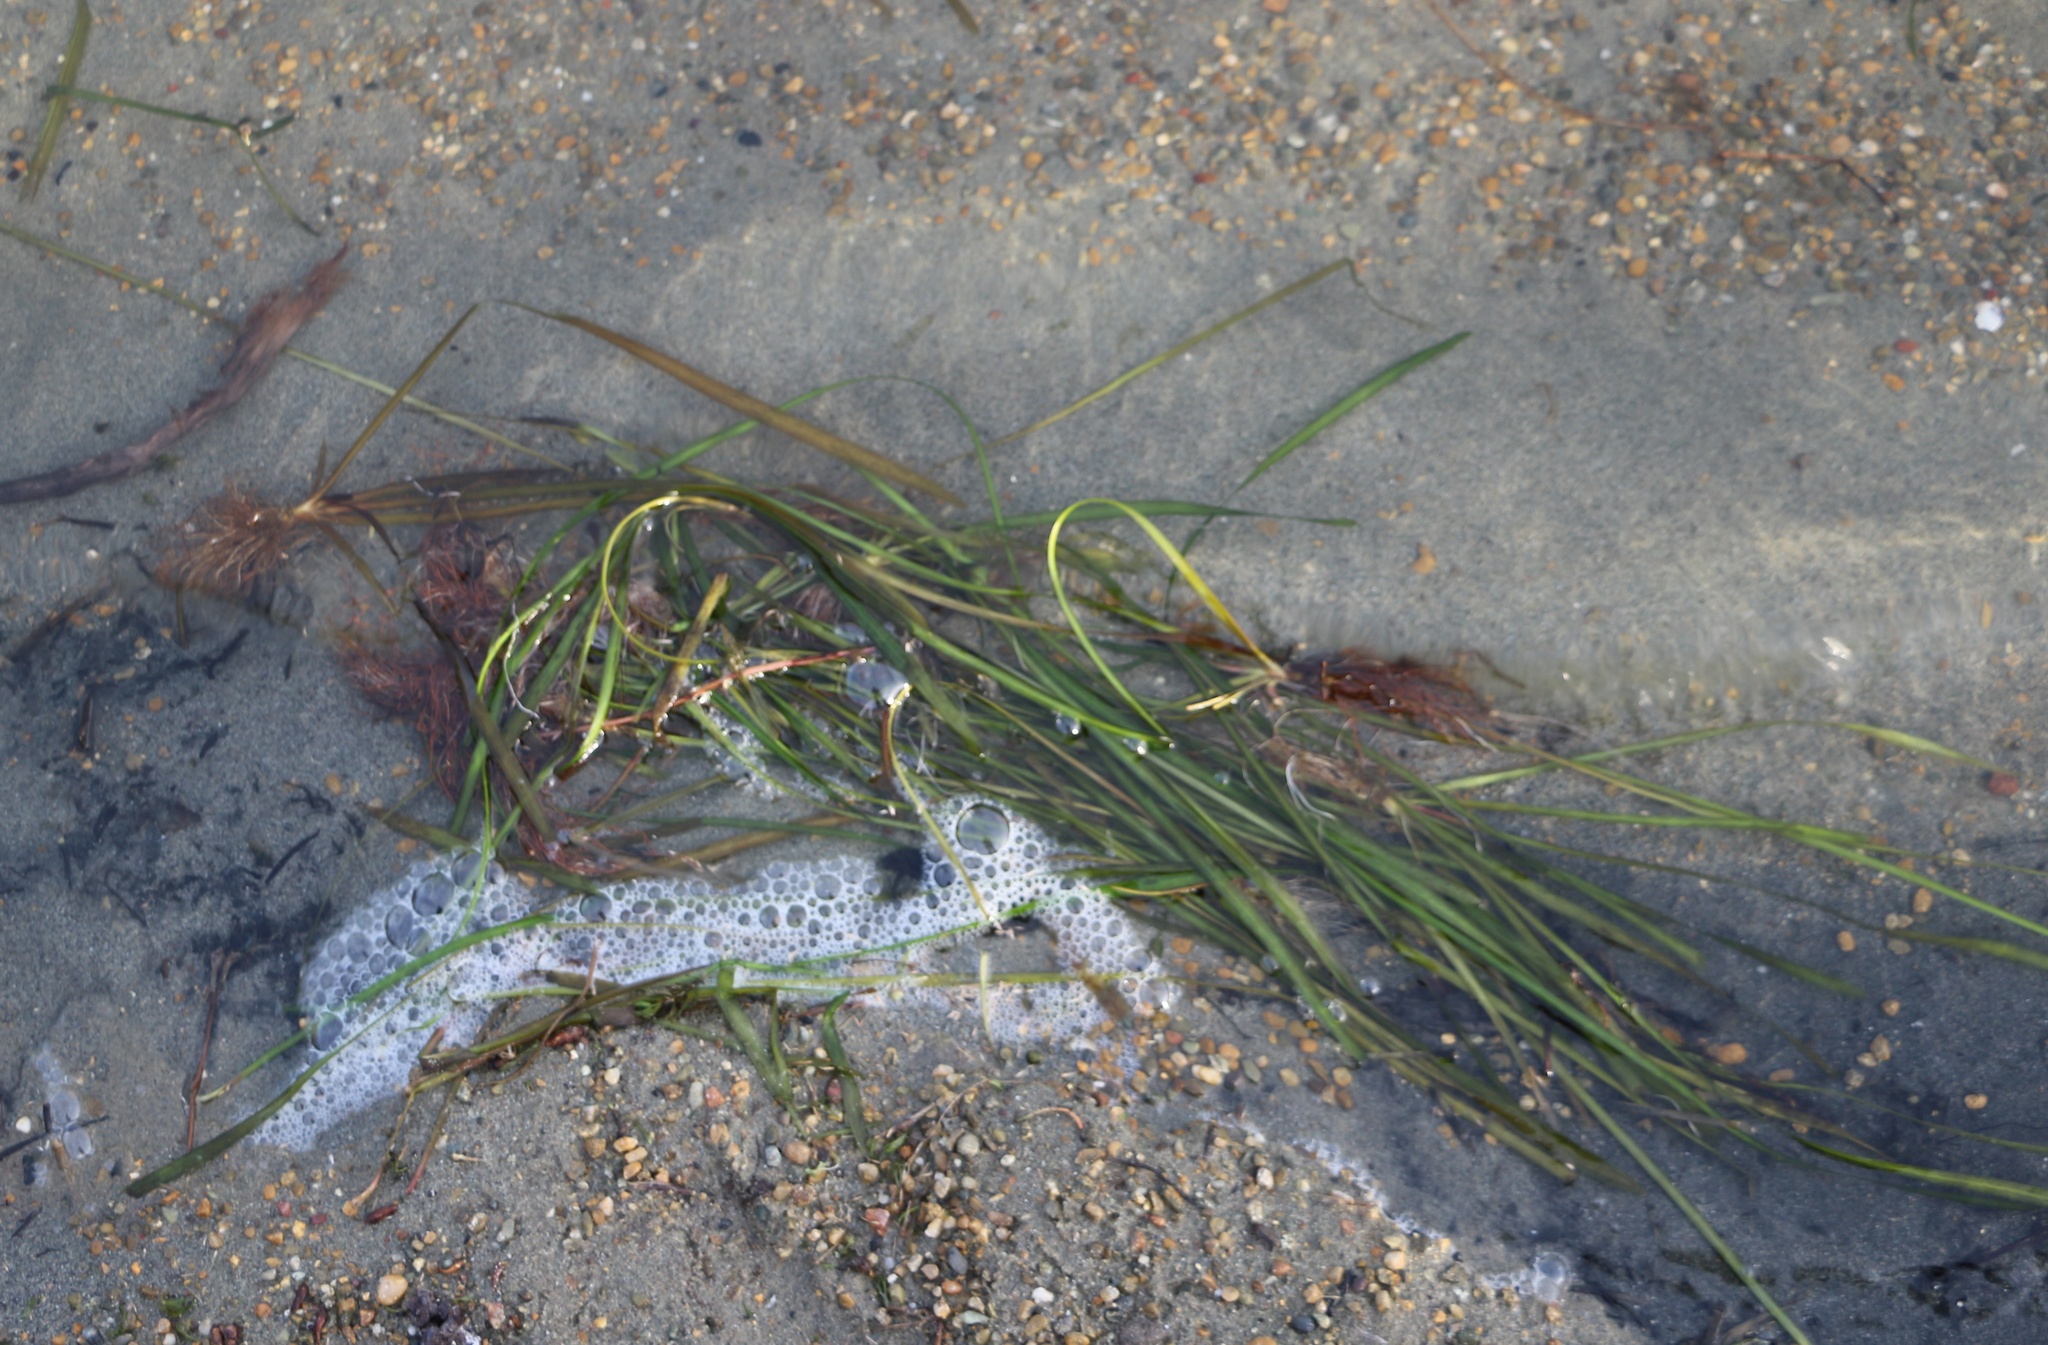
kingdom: Plantae
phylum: Tracheophyta
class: Liliopsida
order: Alismatales
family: Hydrocharitaceae
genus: Vallisneria
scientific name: Vallisneria spiralis
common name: Tapegrass
